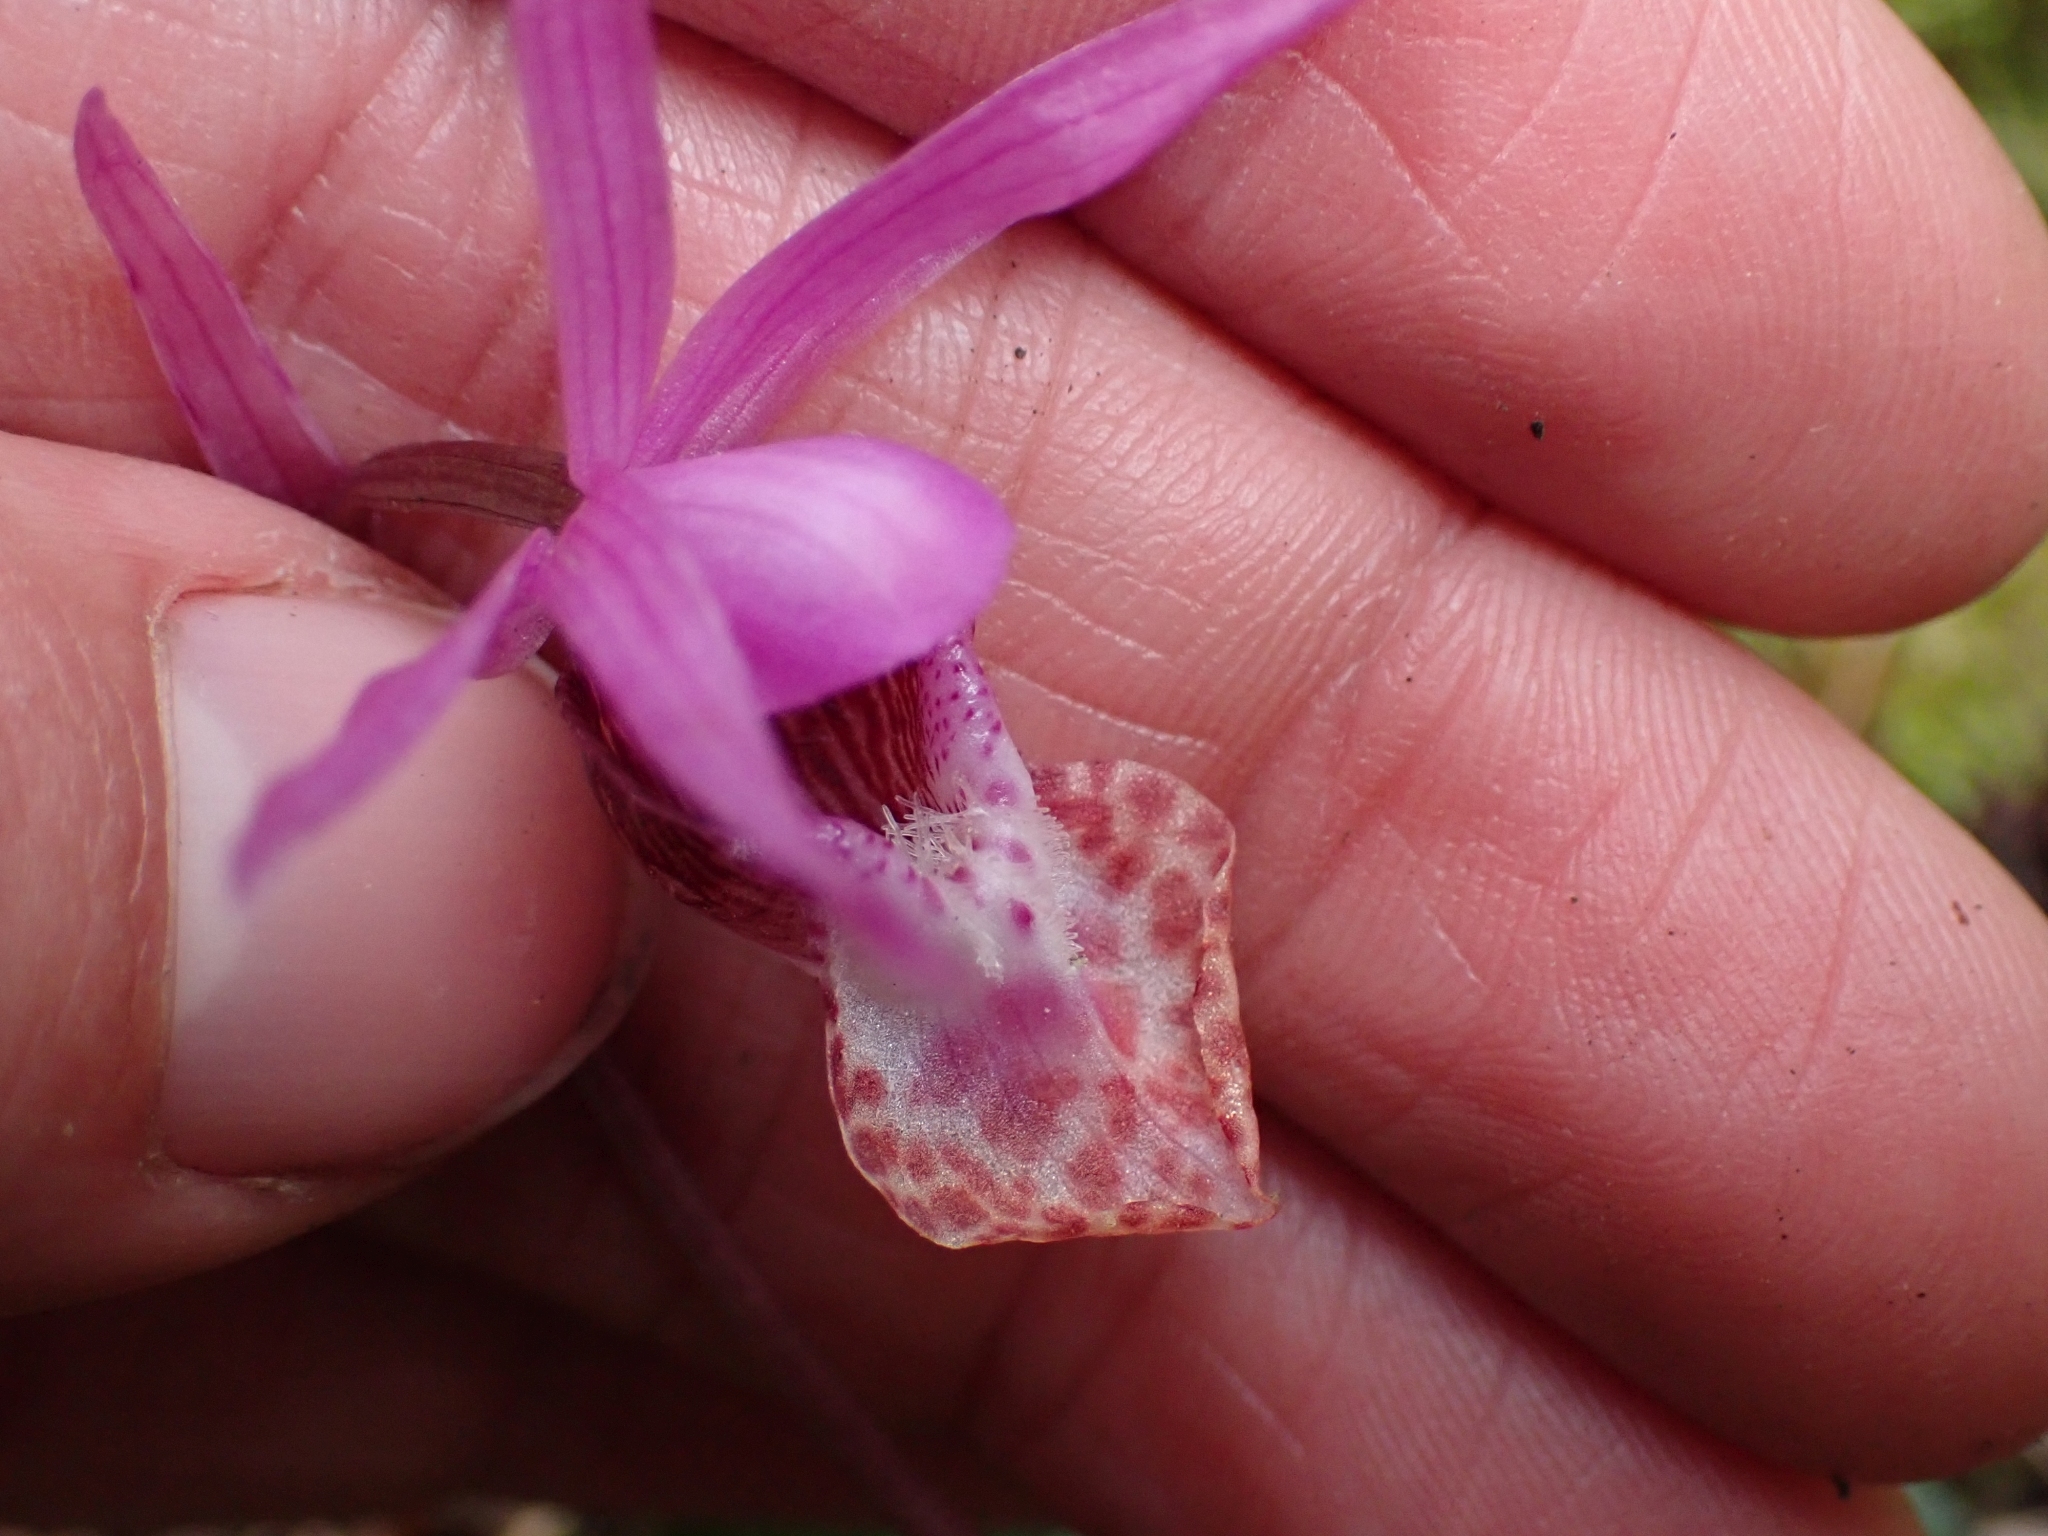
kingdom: Plantae
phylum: Tracheophyta
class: Liliopsida
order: Asparagales
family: Orchidaceae
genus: Calypso
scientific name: Calypso bulbosa
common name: Calypso
